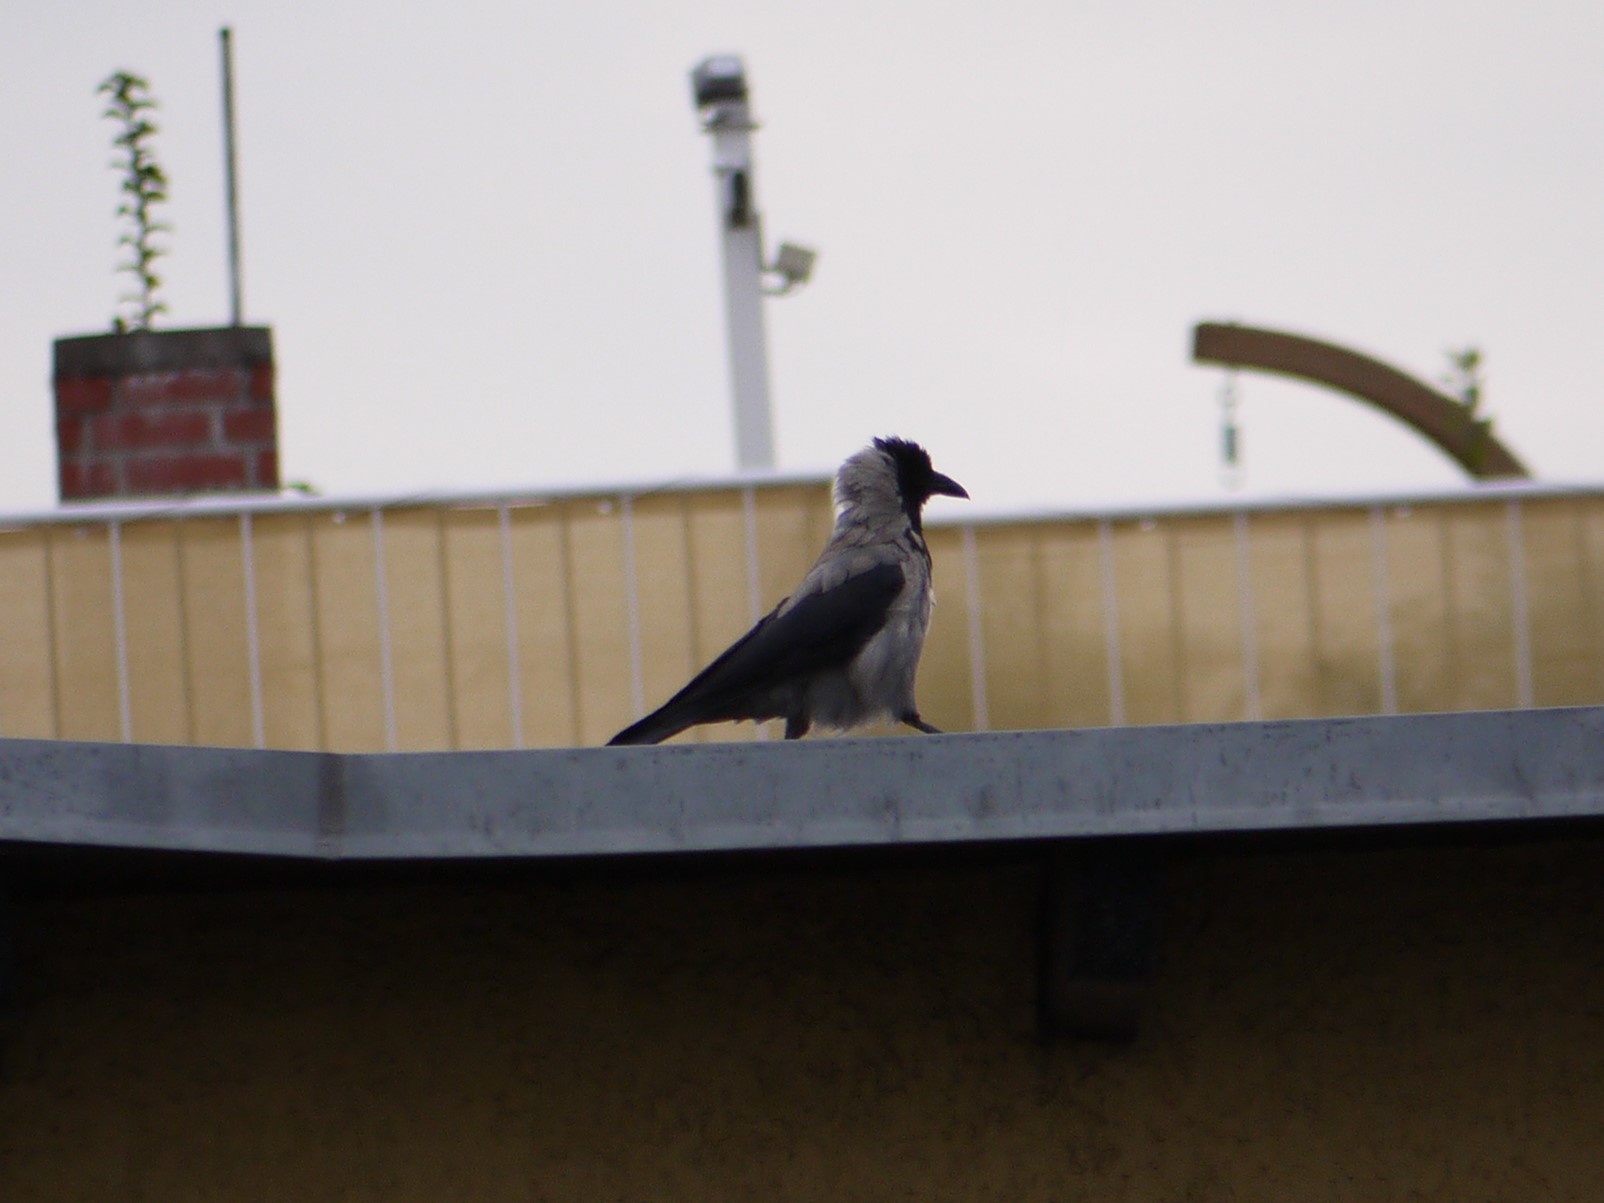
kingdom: Animalia
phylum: Chordata
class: Aves
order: Passeriformes
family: Corvidae
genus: Corvus
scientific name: Corvus cornix
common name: Hooded crow
